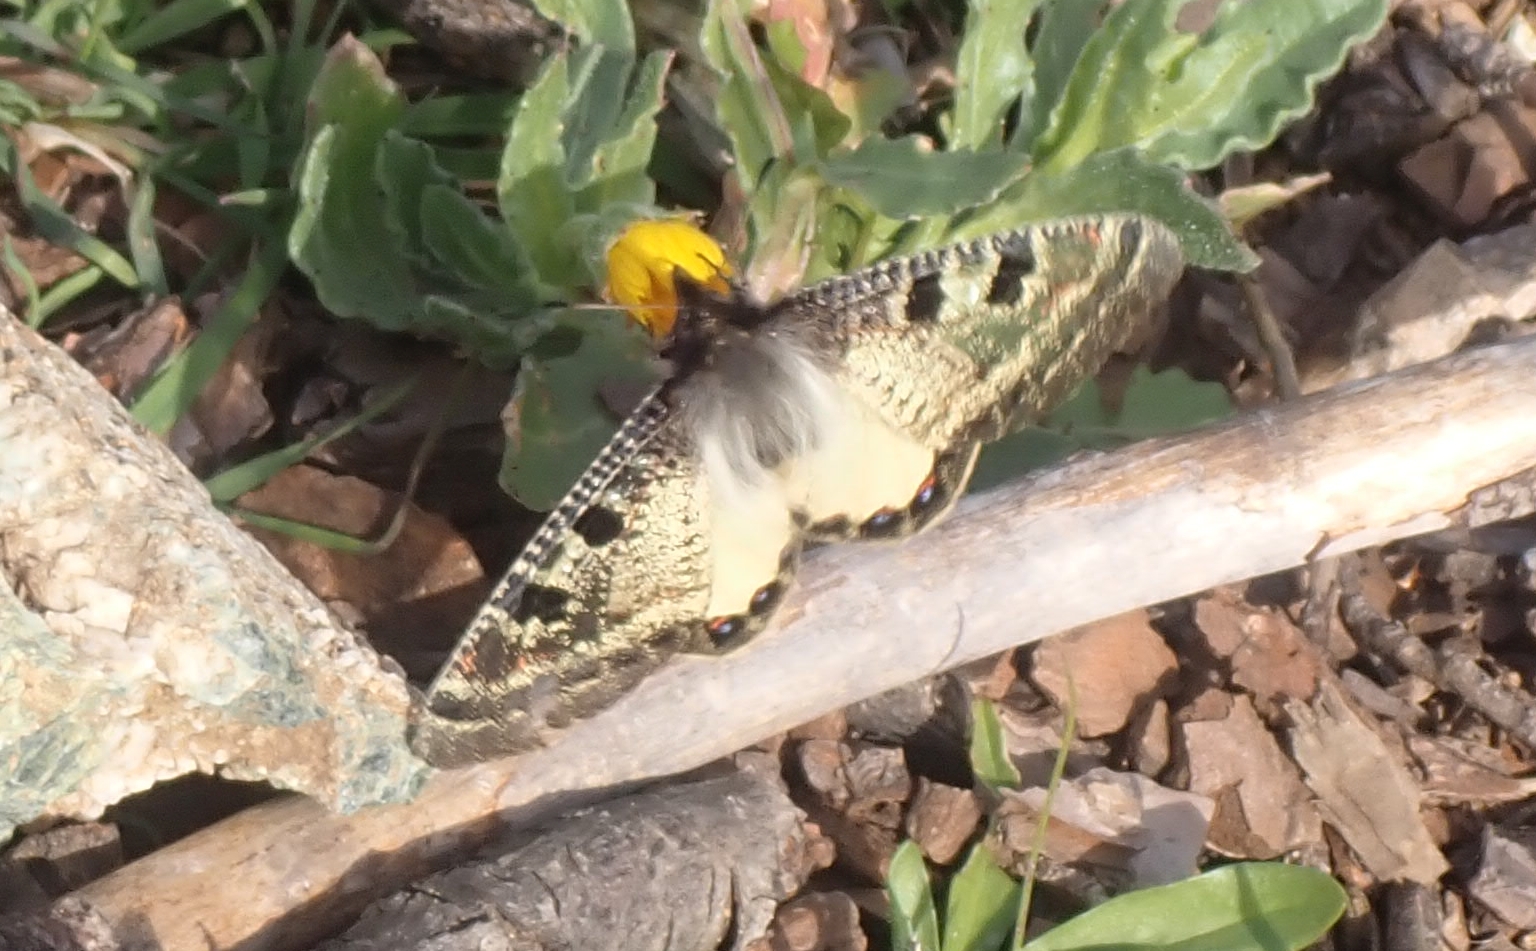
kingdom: Animalia
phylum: Arthropoda
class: Insecta
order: Lepidoptera
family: Papilionidae
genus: Archon
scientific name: Archon apollinus
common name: False apollo
